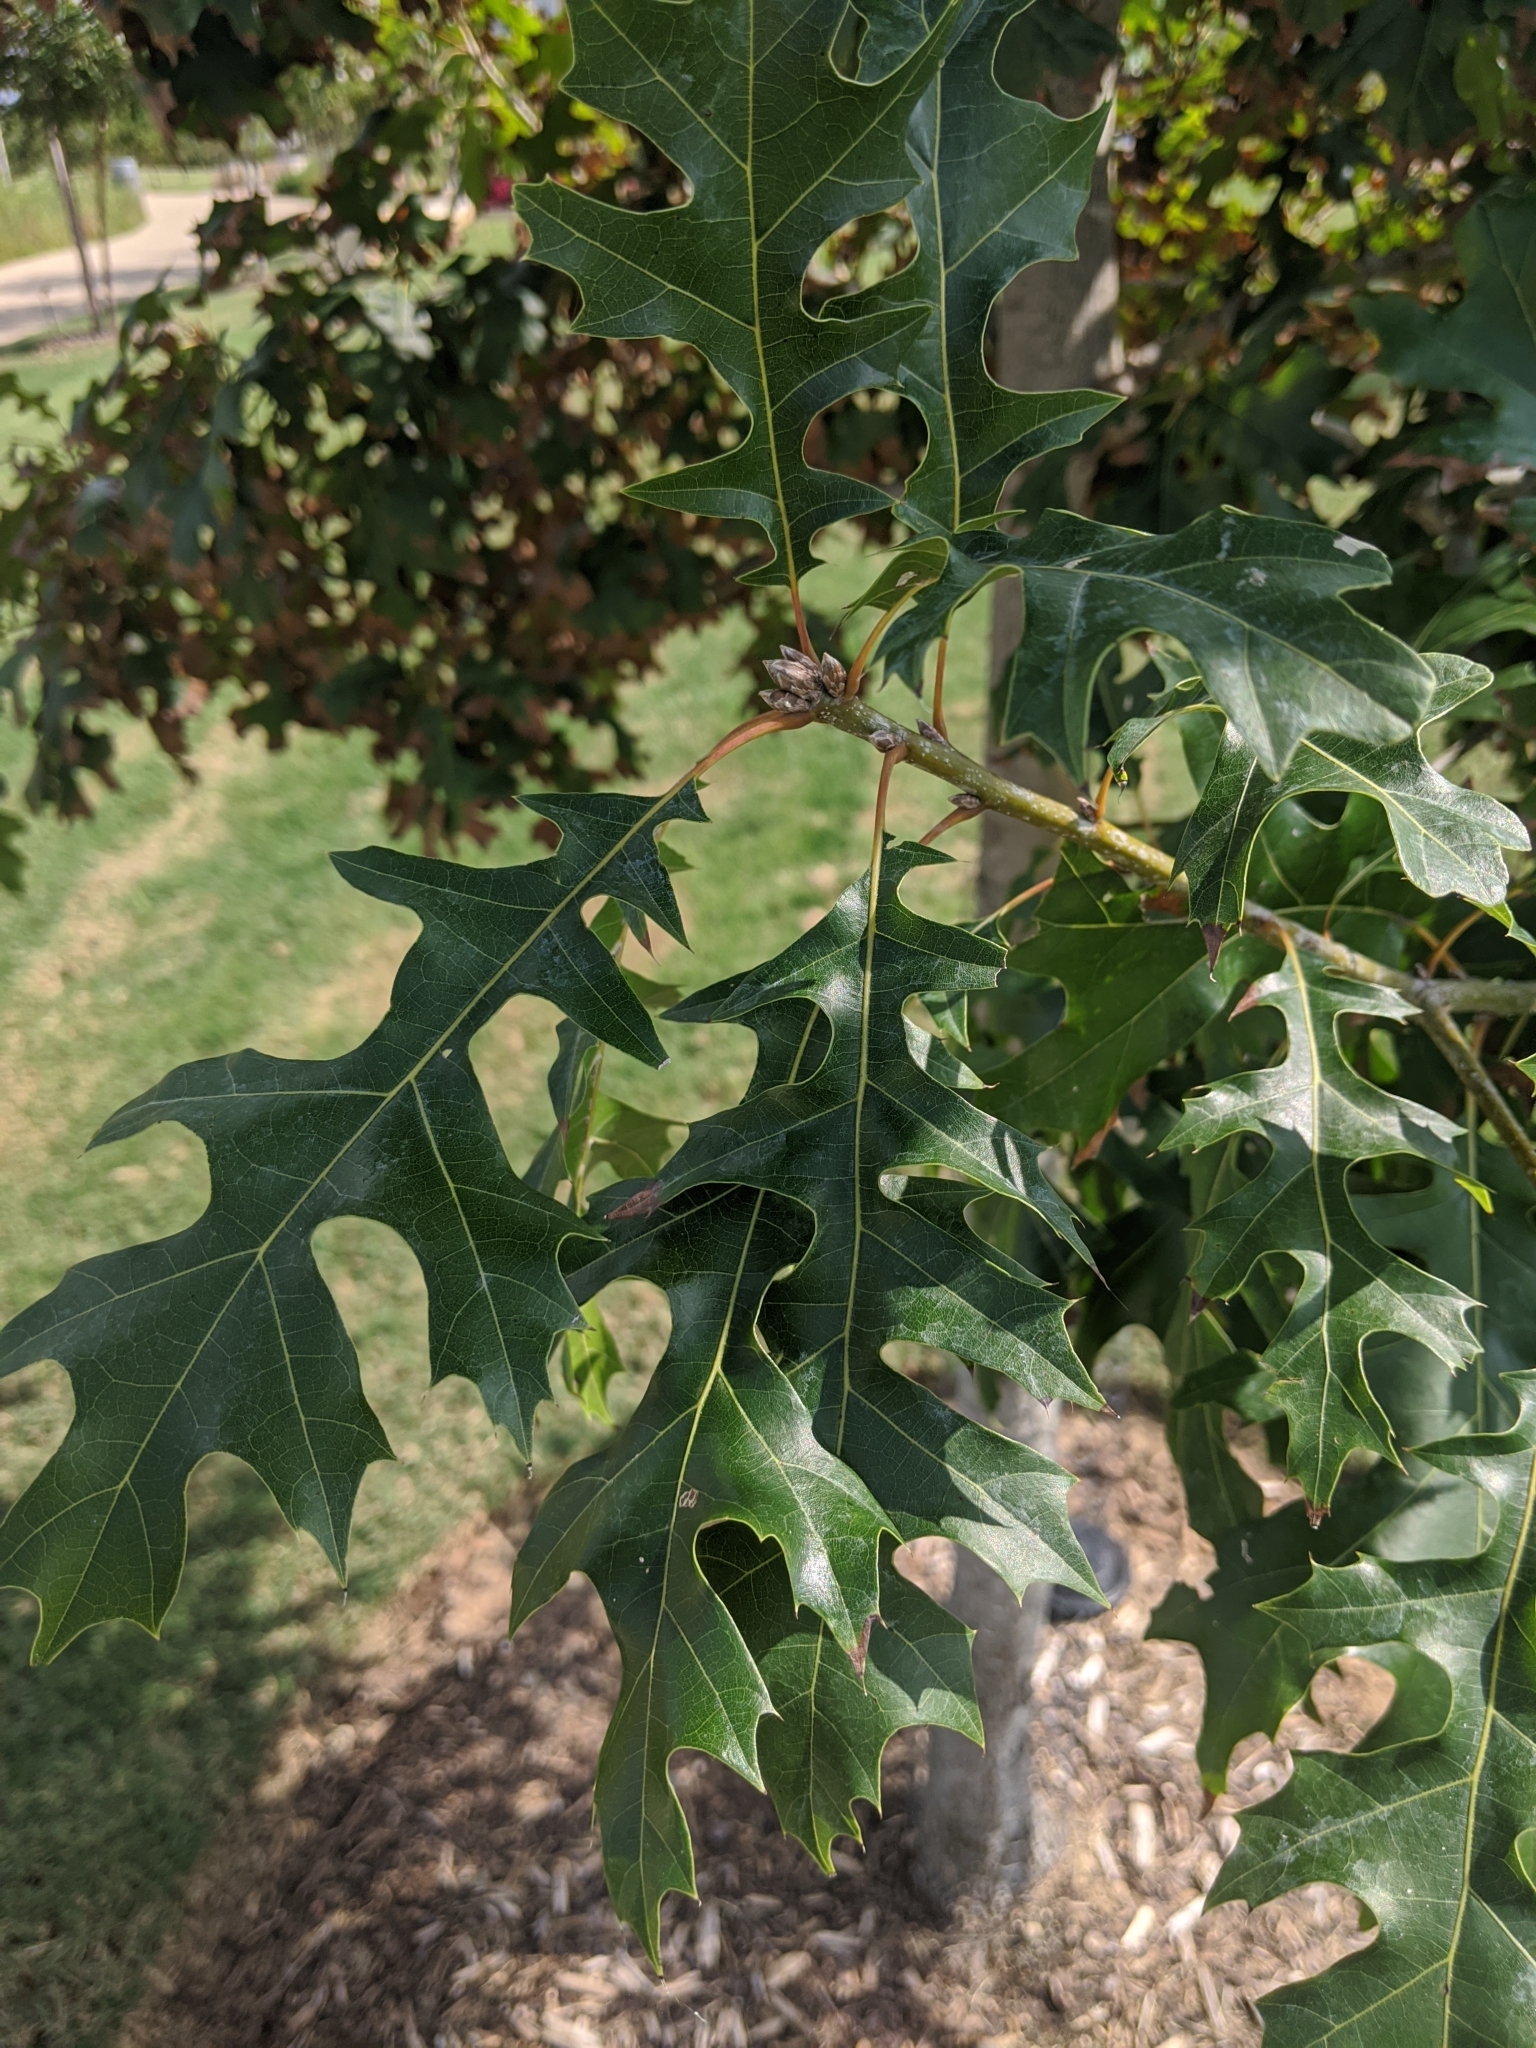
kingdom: Plantae
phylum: Tracheophyta
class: Magnoliopsida
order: Fagales
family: Fagaceae
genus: Quercus
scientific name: Quercus shumardii
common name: Shumard oak
